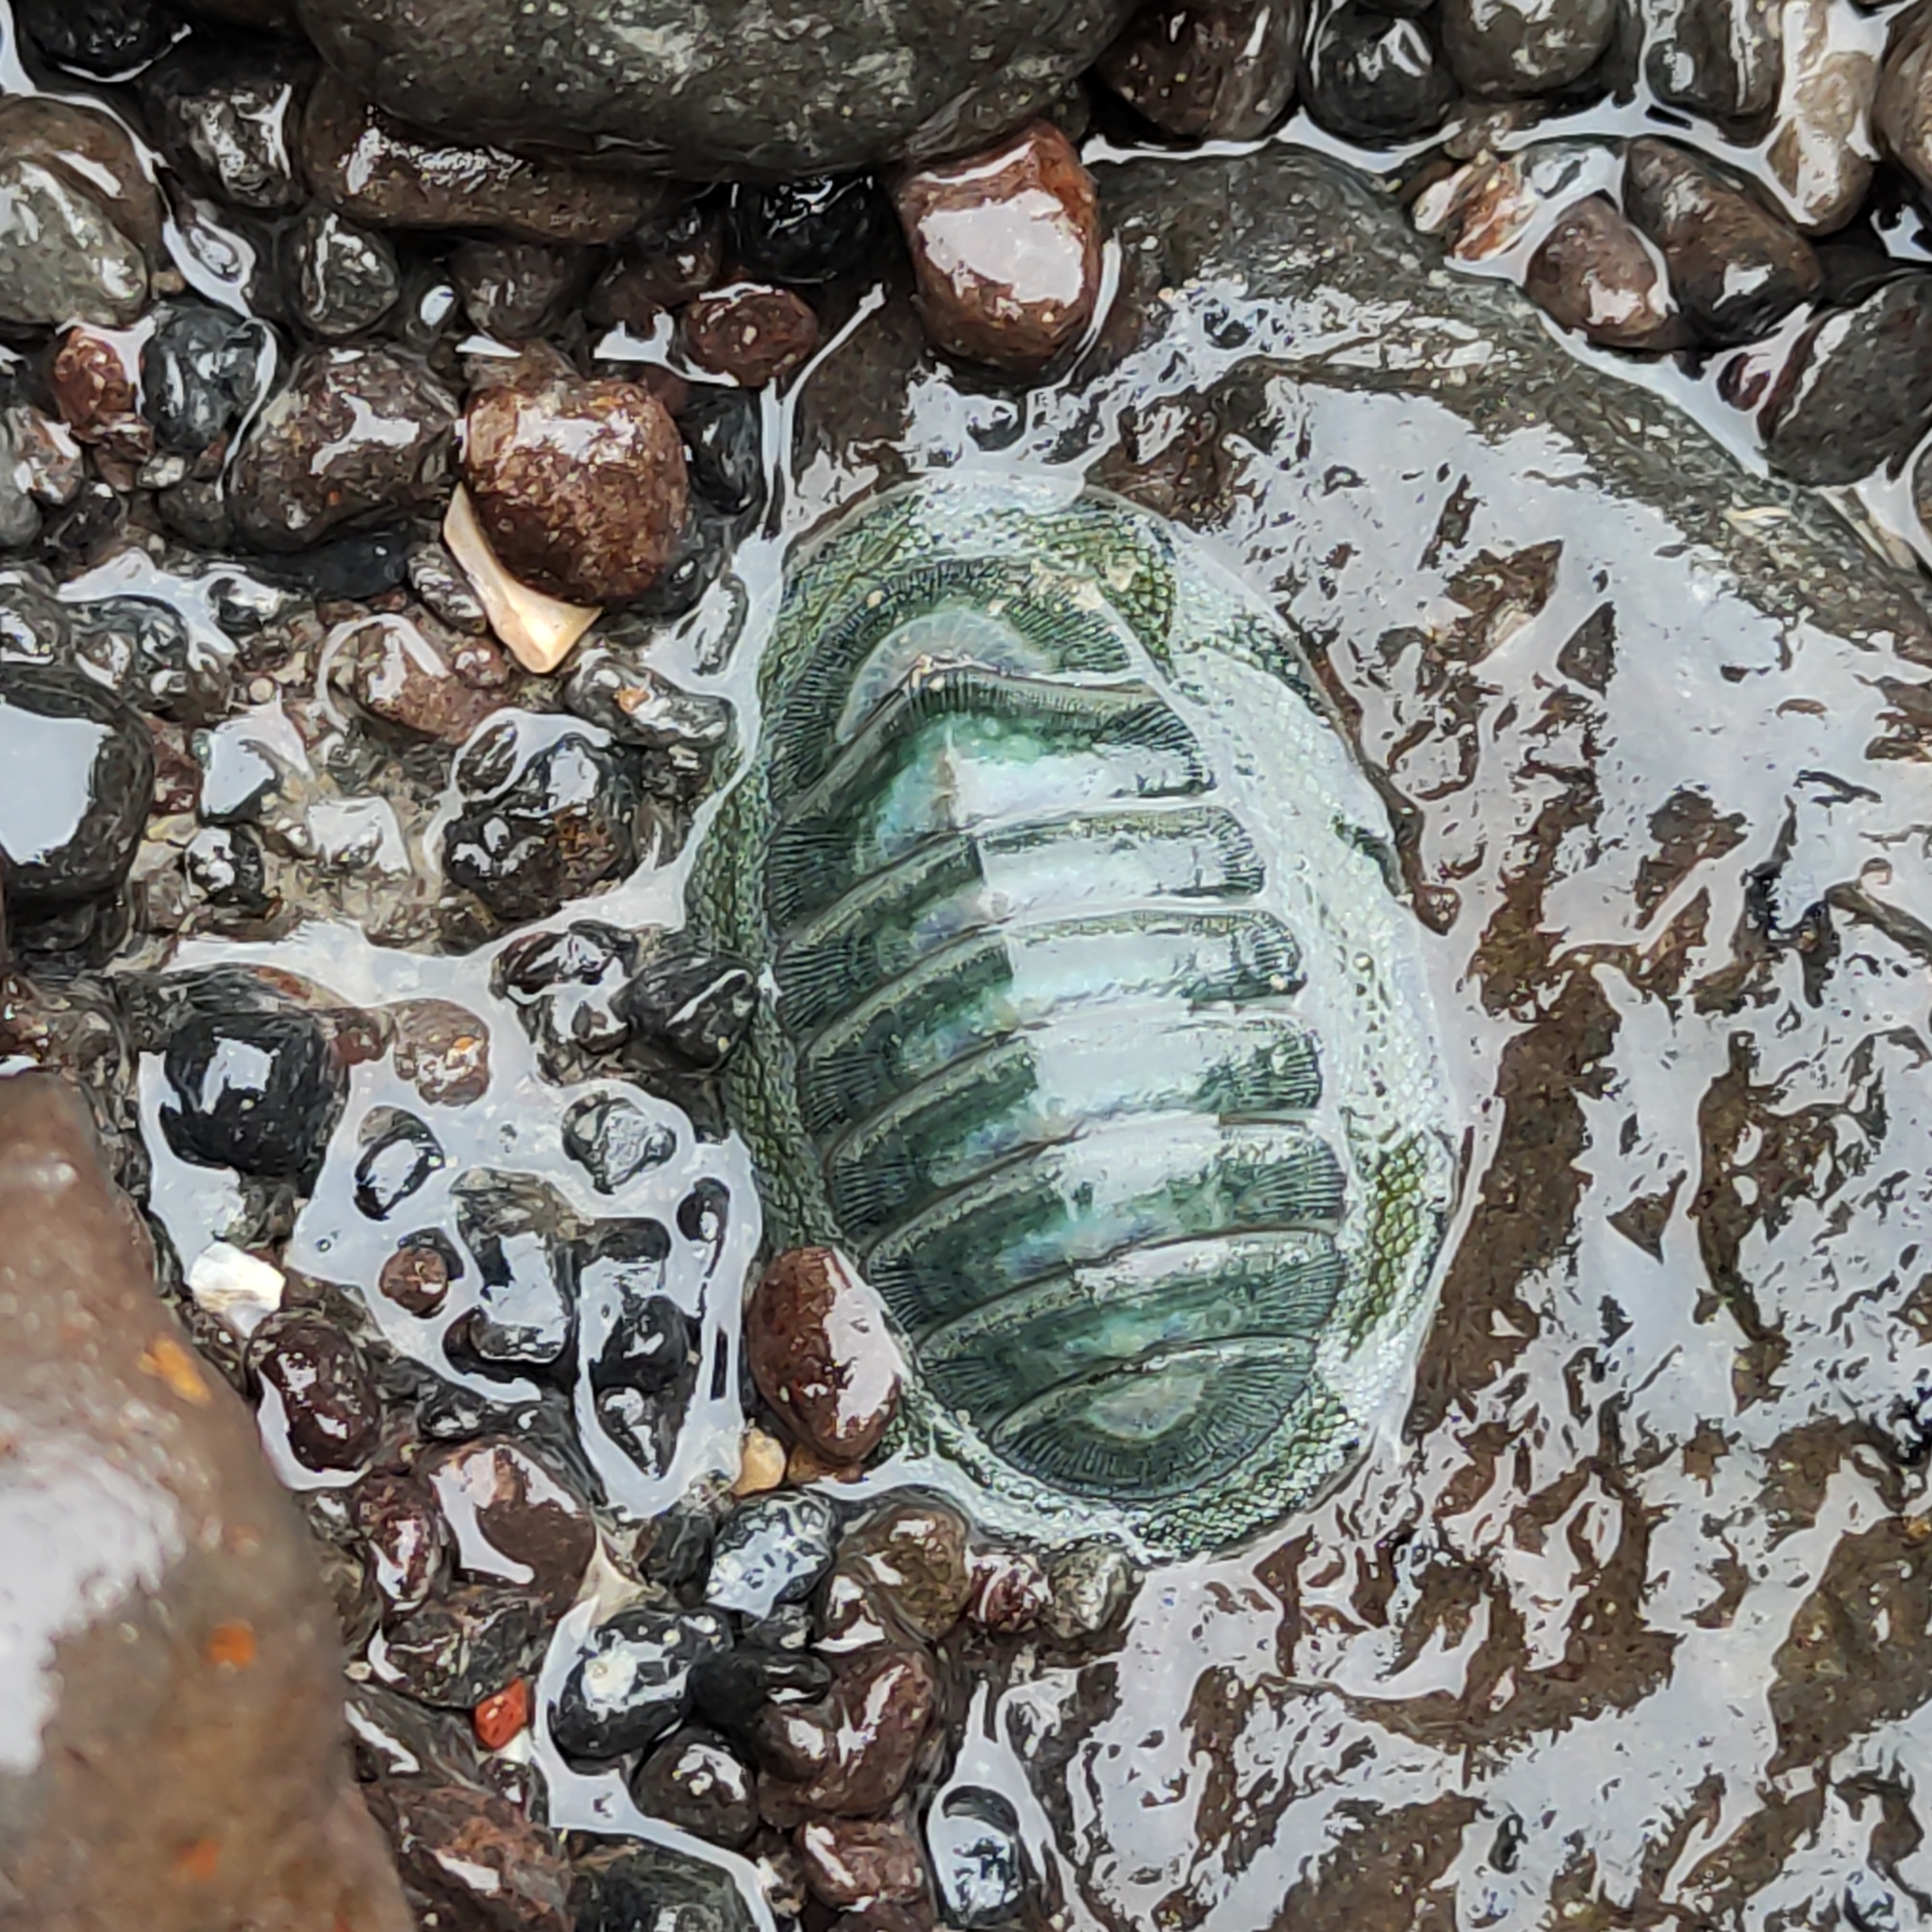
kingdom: Animalia
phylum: Mollusca
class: Polyplacophora
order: Chitonida
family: Chitonidae
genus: Chiton
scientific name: Chiton glaucus
